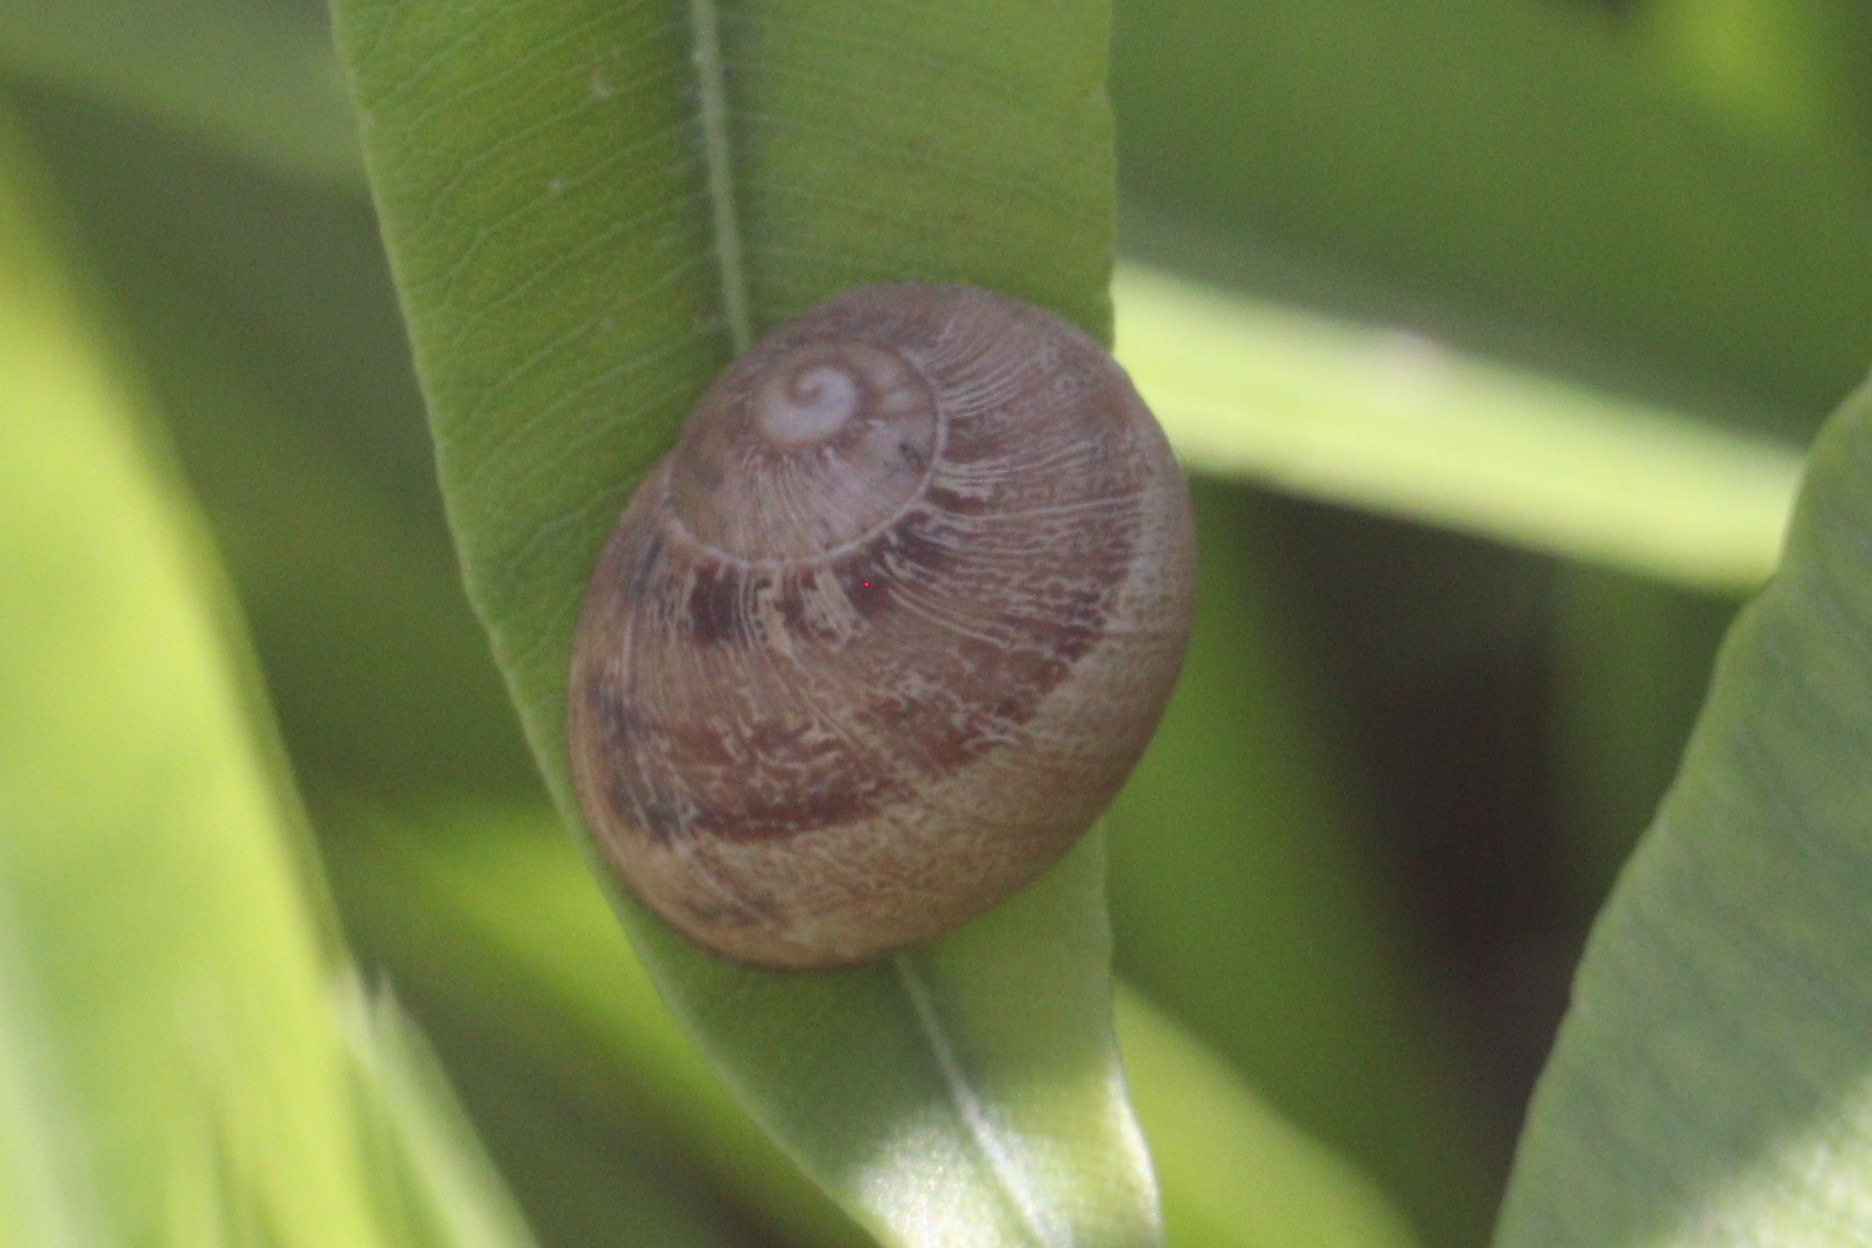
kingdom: Animalia
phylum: Mollusca
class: Gastropoda
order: Stylommatophora
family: Helicidae
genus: Cornu
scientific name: Cornu aspersum
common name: Brown garden snail
